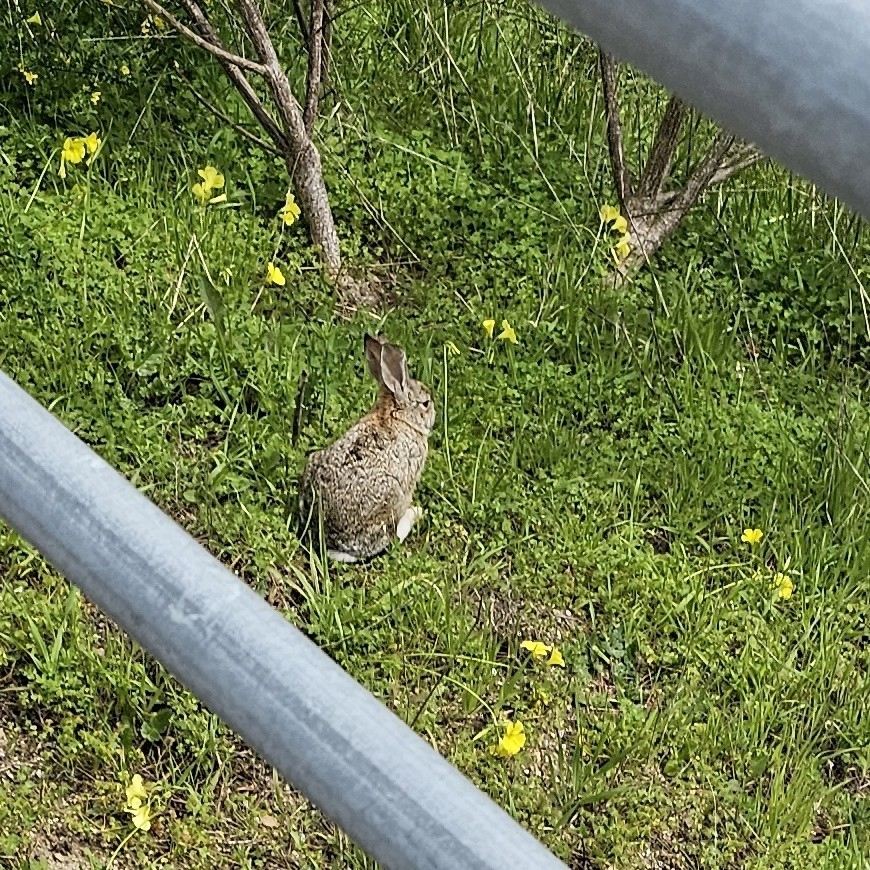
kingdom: Animalia
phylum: Chordata
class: Mammalia
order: Lagomorpha
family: Leporidae
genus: Sylvilagus
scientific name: Sylvilagus bachmani
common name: Brush rabbit
